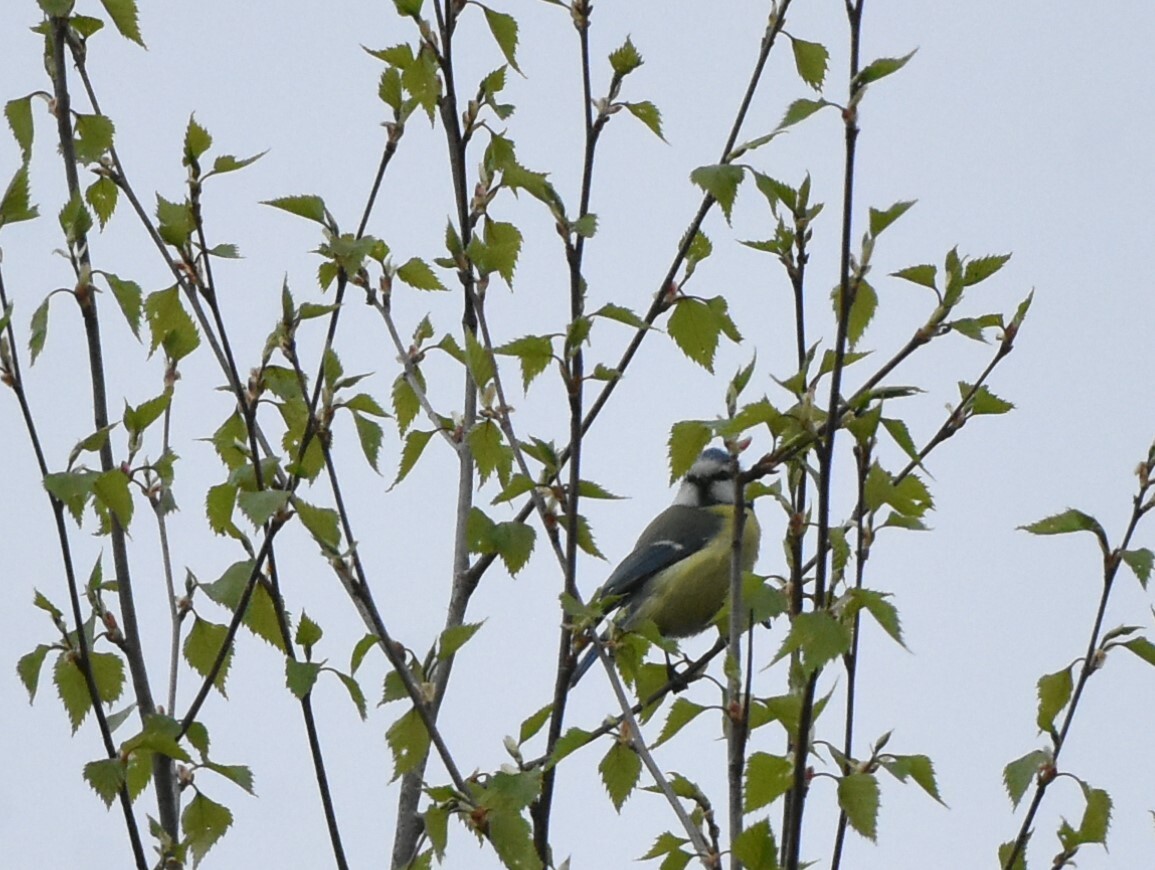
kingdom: Animalia
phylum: Chordata
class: Aves
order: Passeriformes
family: Paridae
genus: Cyanistes
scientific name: Cyanistes caeruleus
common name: Eurasian blue tit
